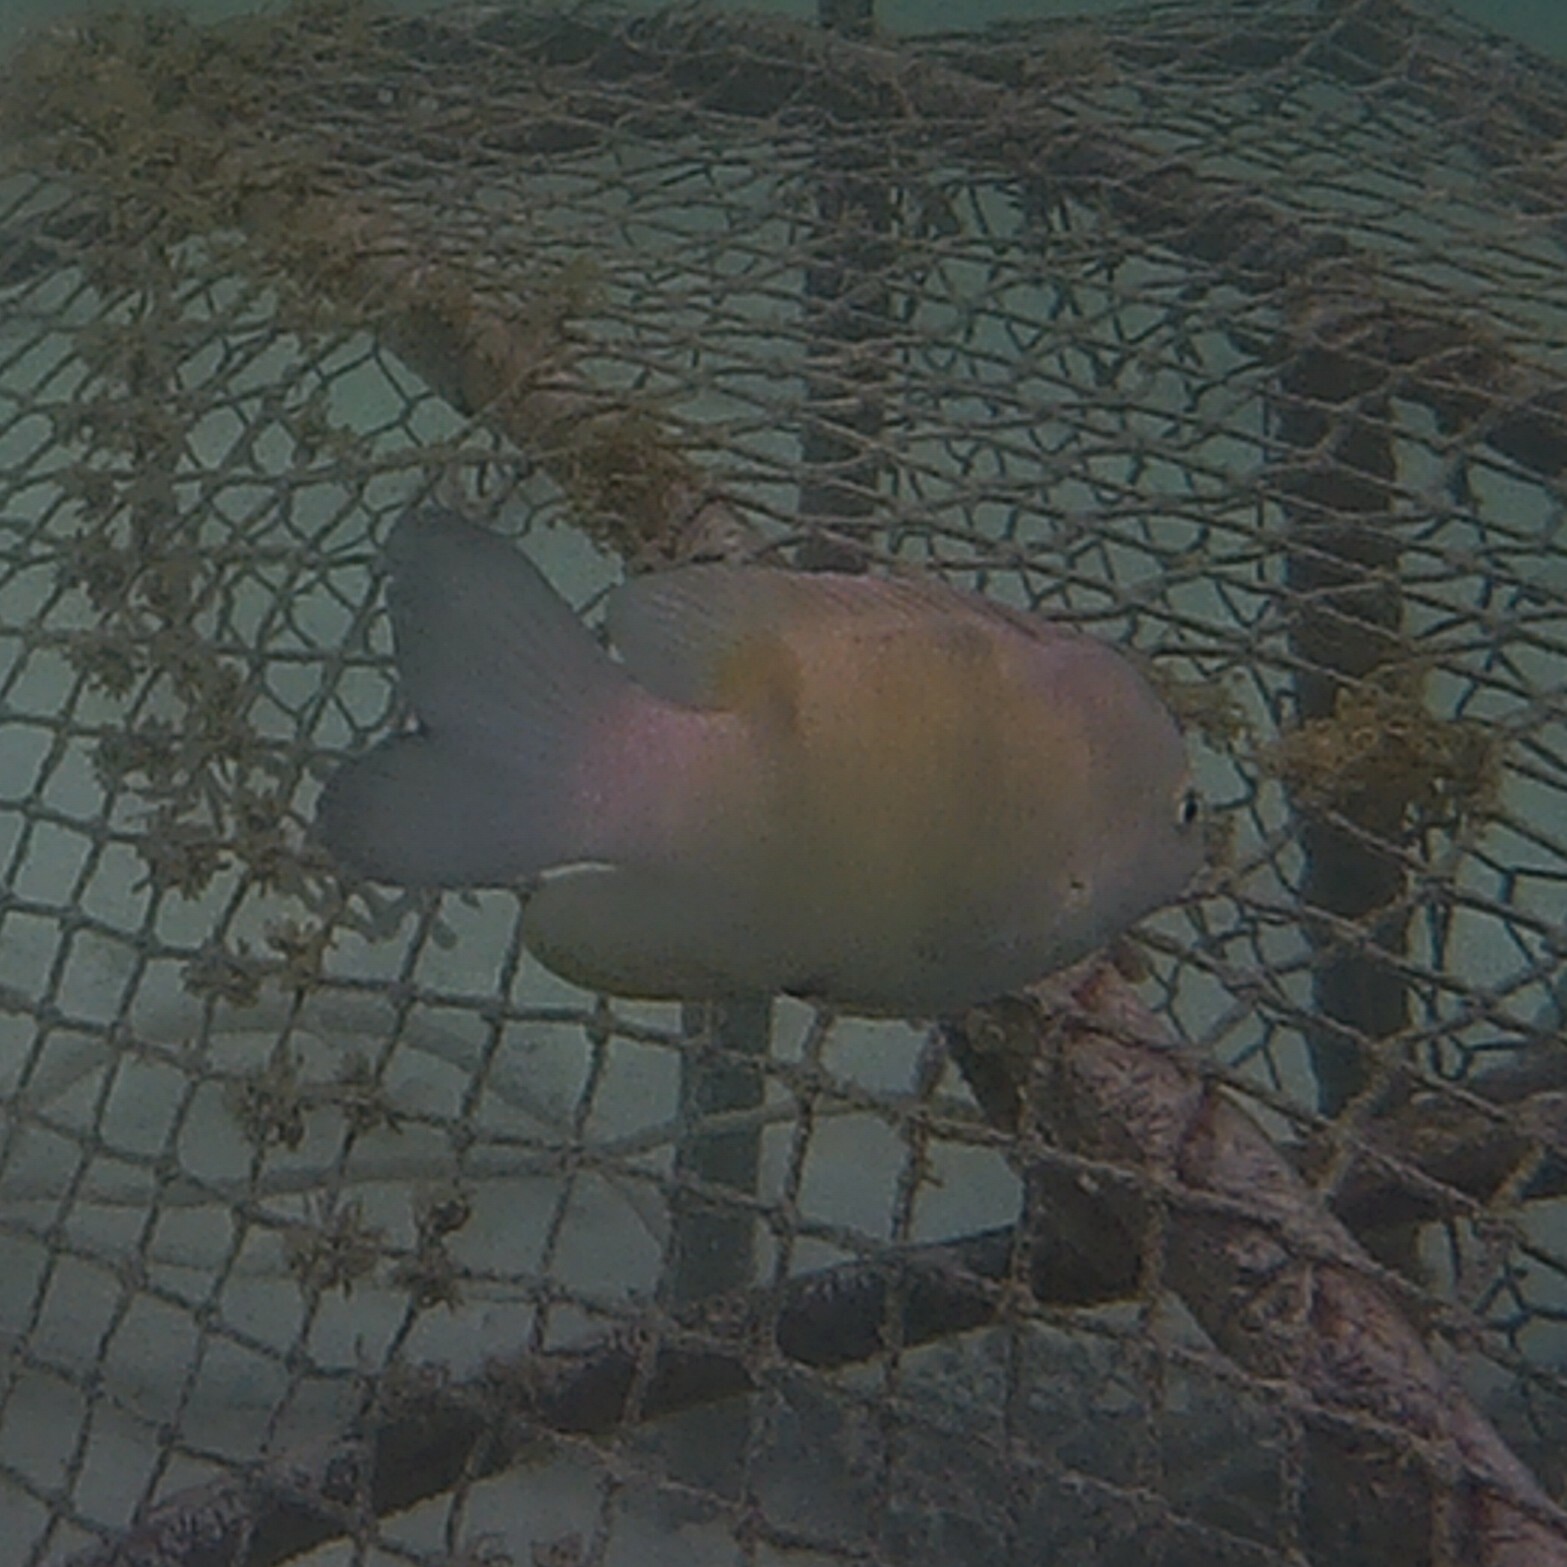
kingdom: Animalia
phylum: Chordata
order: Perciformes
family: Pomacentridae
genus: Dischistodus
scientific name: Dischistodus perspicillatus
